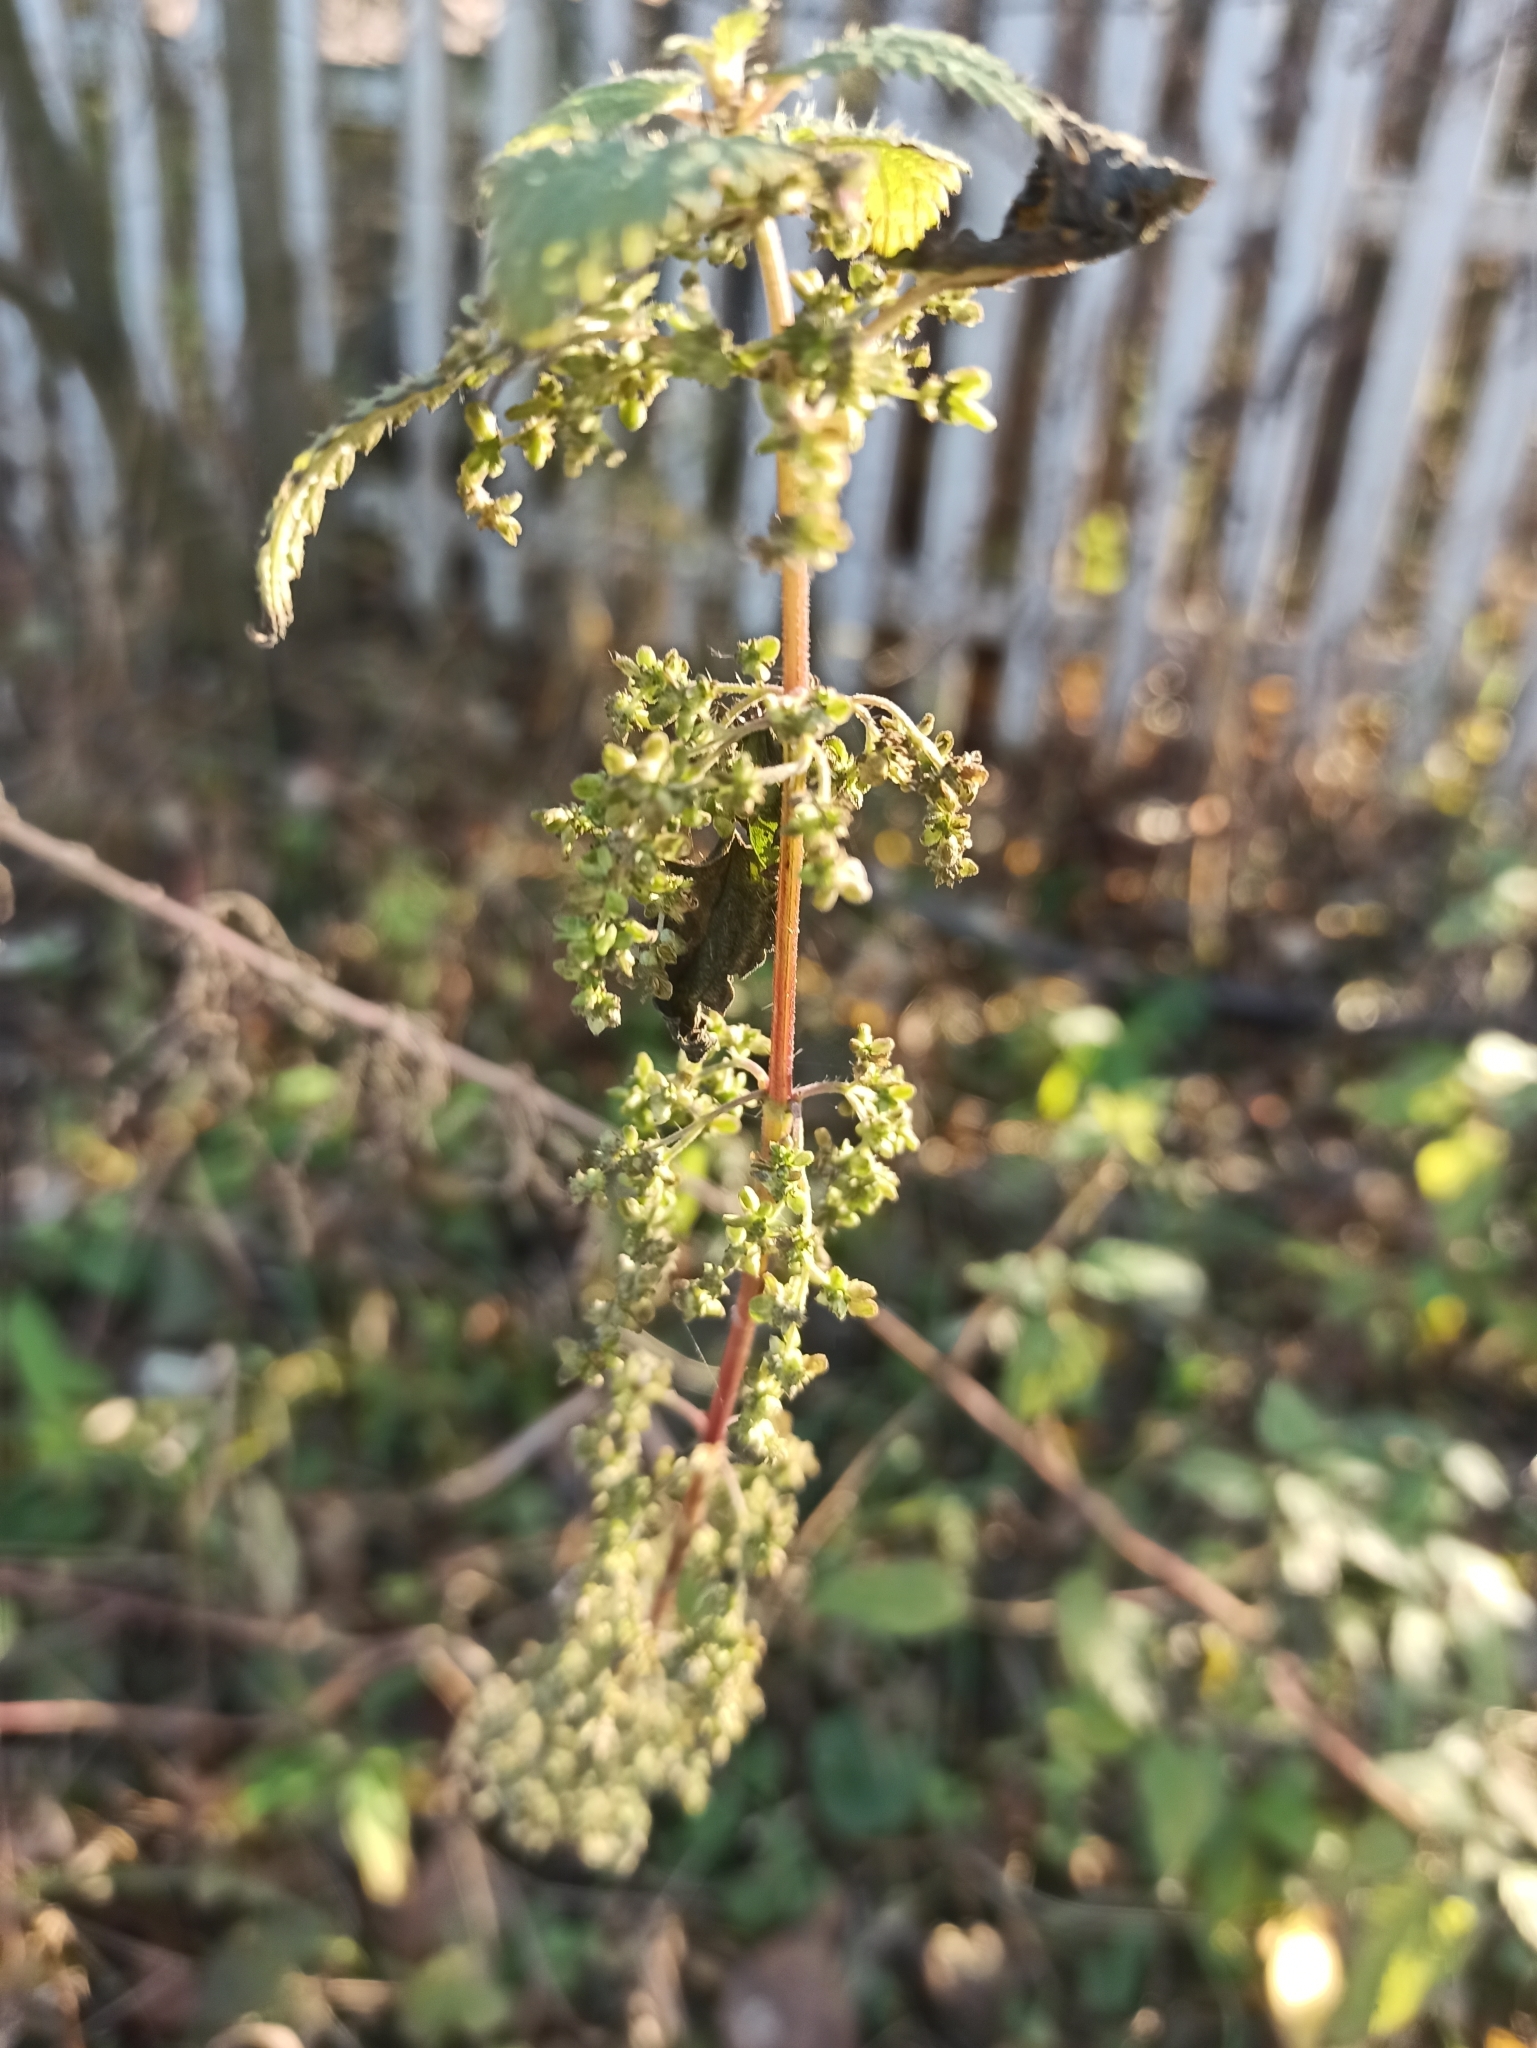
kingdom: Plantae
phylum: Tracheophyta
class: Magnoliopsida
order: Rosales
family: Urticaceae
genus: Urtica
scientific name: Urtica dioica
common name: Common nettle
